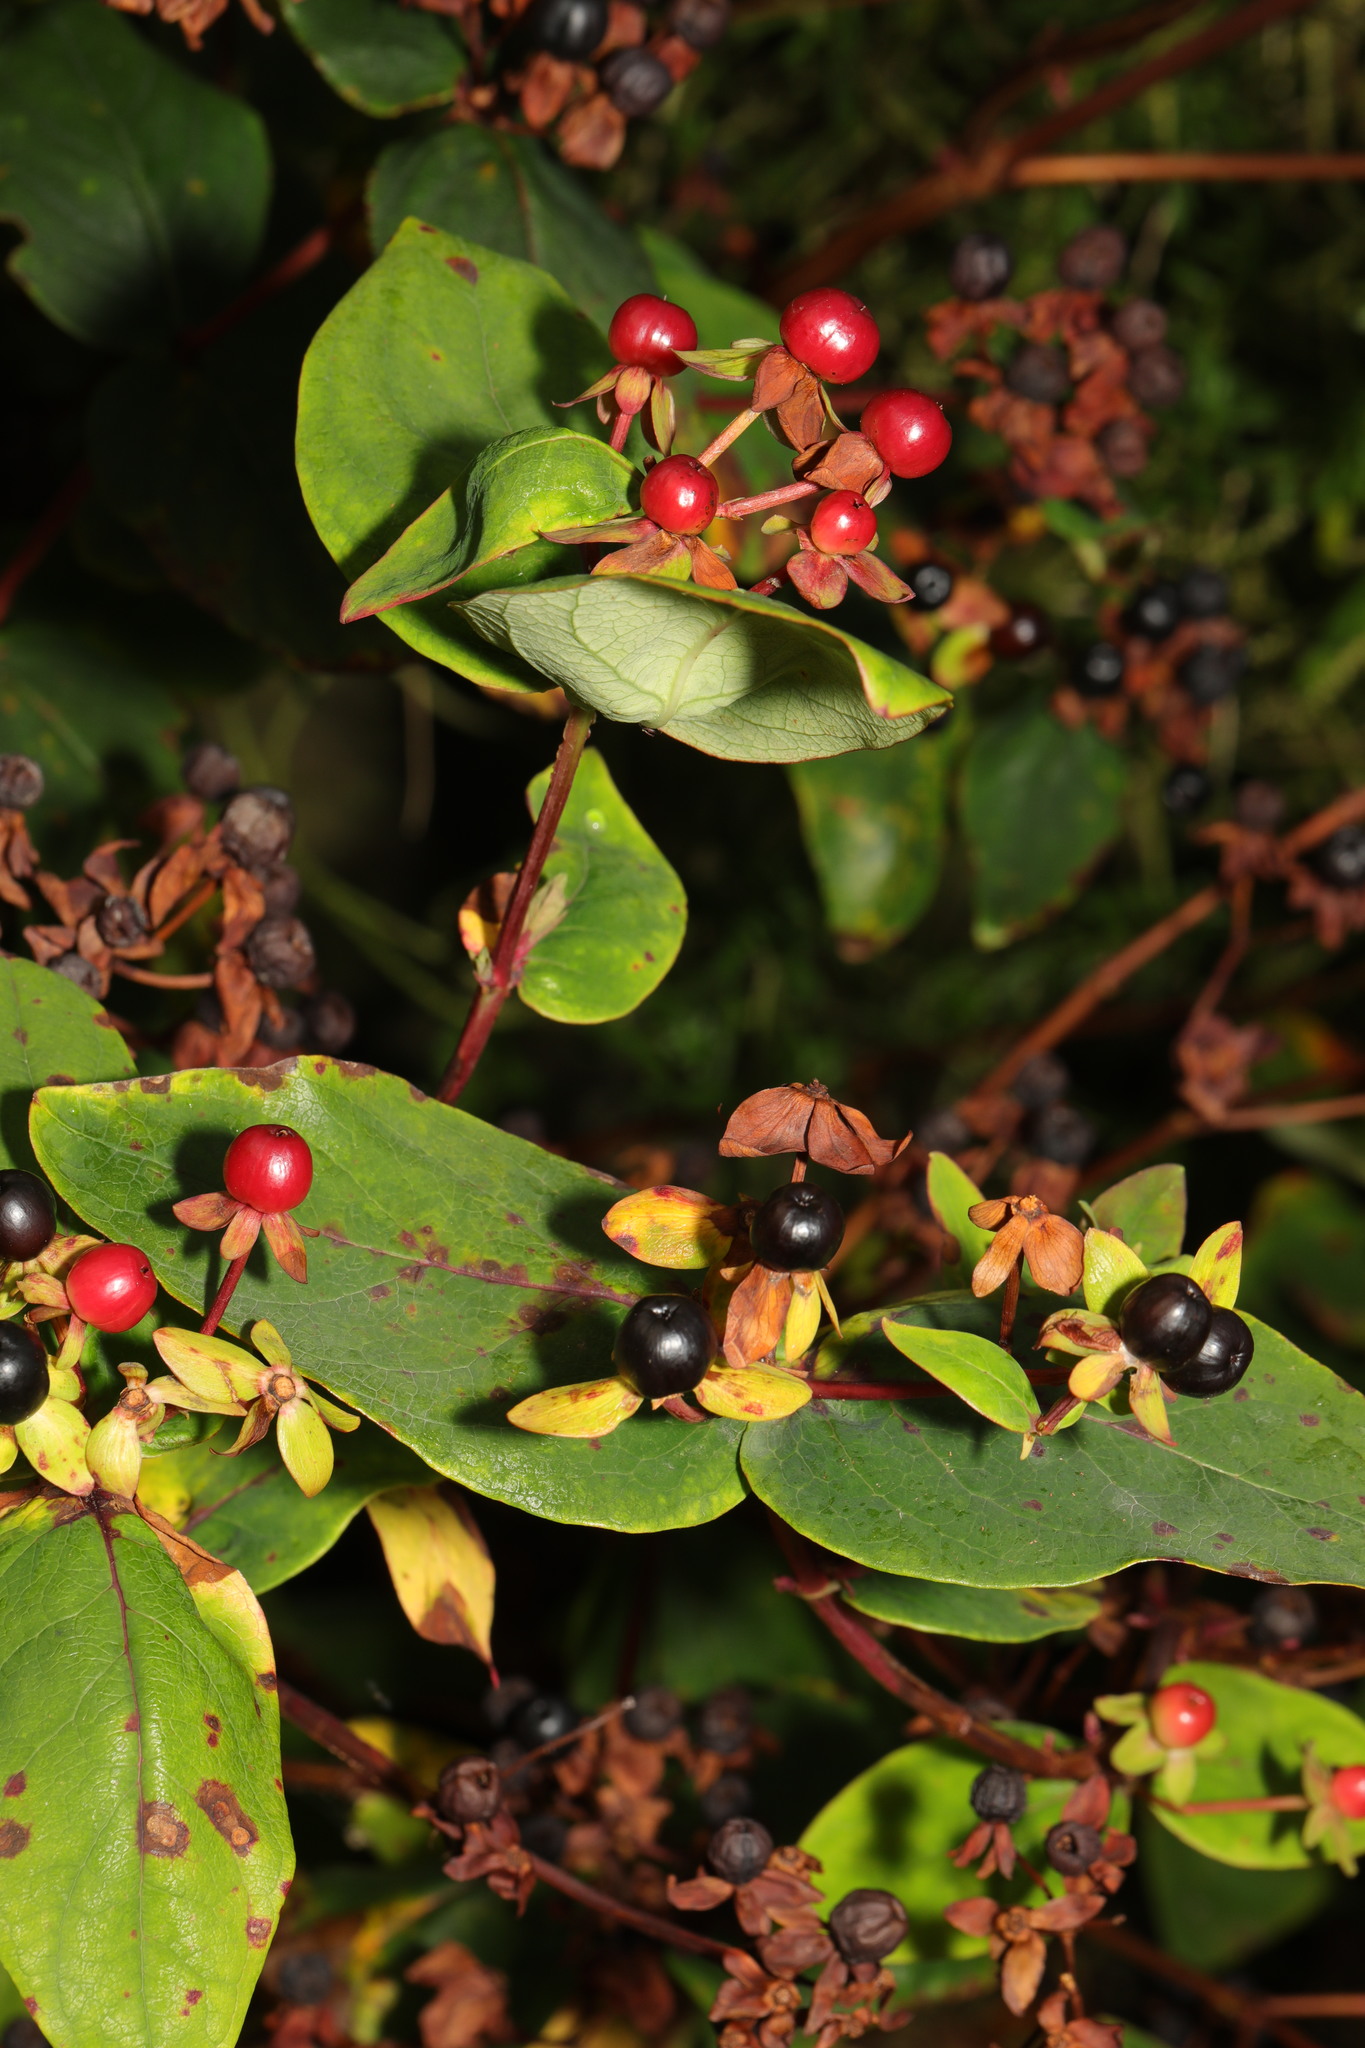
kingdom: Plantae
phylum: Tracheophyta
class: Magnoliopsida
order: Malpighiales
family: Hypericaceae
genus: Hypericum
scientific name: Hypericum androsaemum
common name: Sweet-amber
